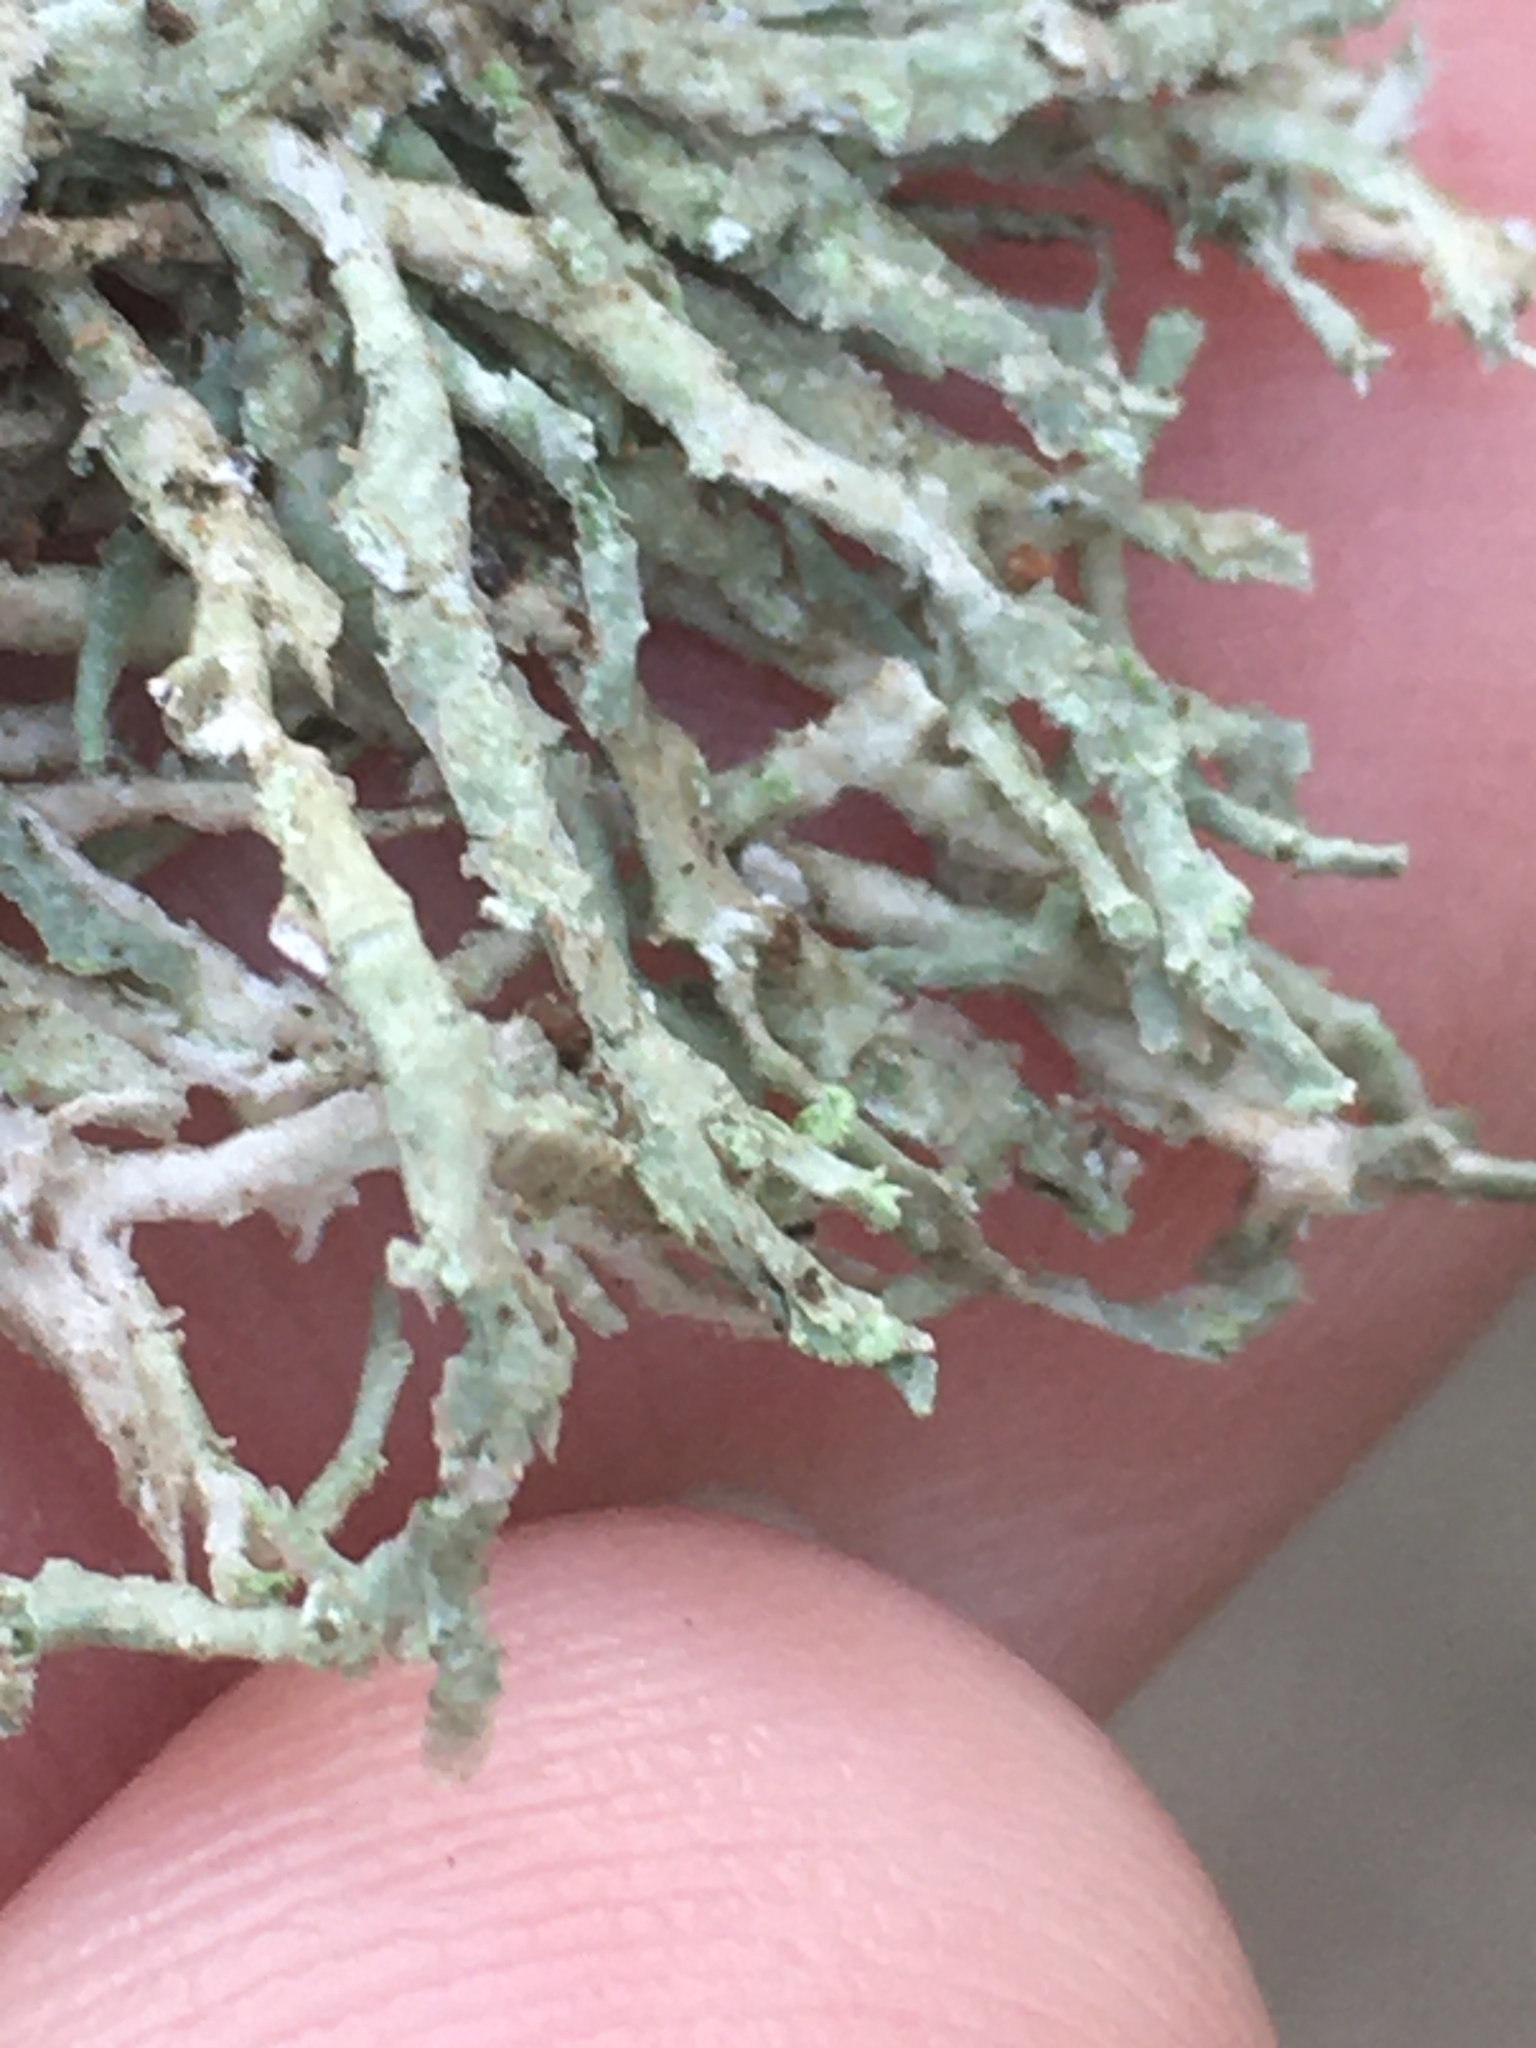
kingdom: Fungi
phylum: Ascomycota
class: Lecanoromycetes
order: Lecanorales
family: Ramalinaceae
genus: Niebla
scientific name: Niebla cephalota
